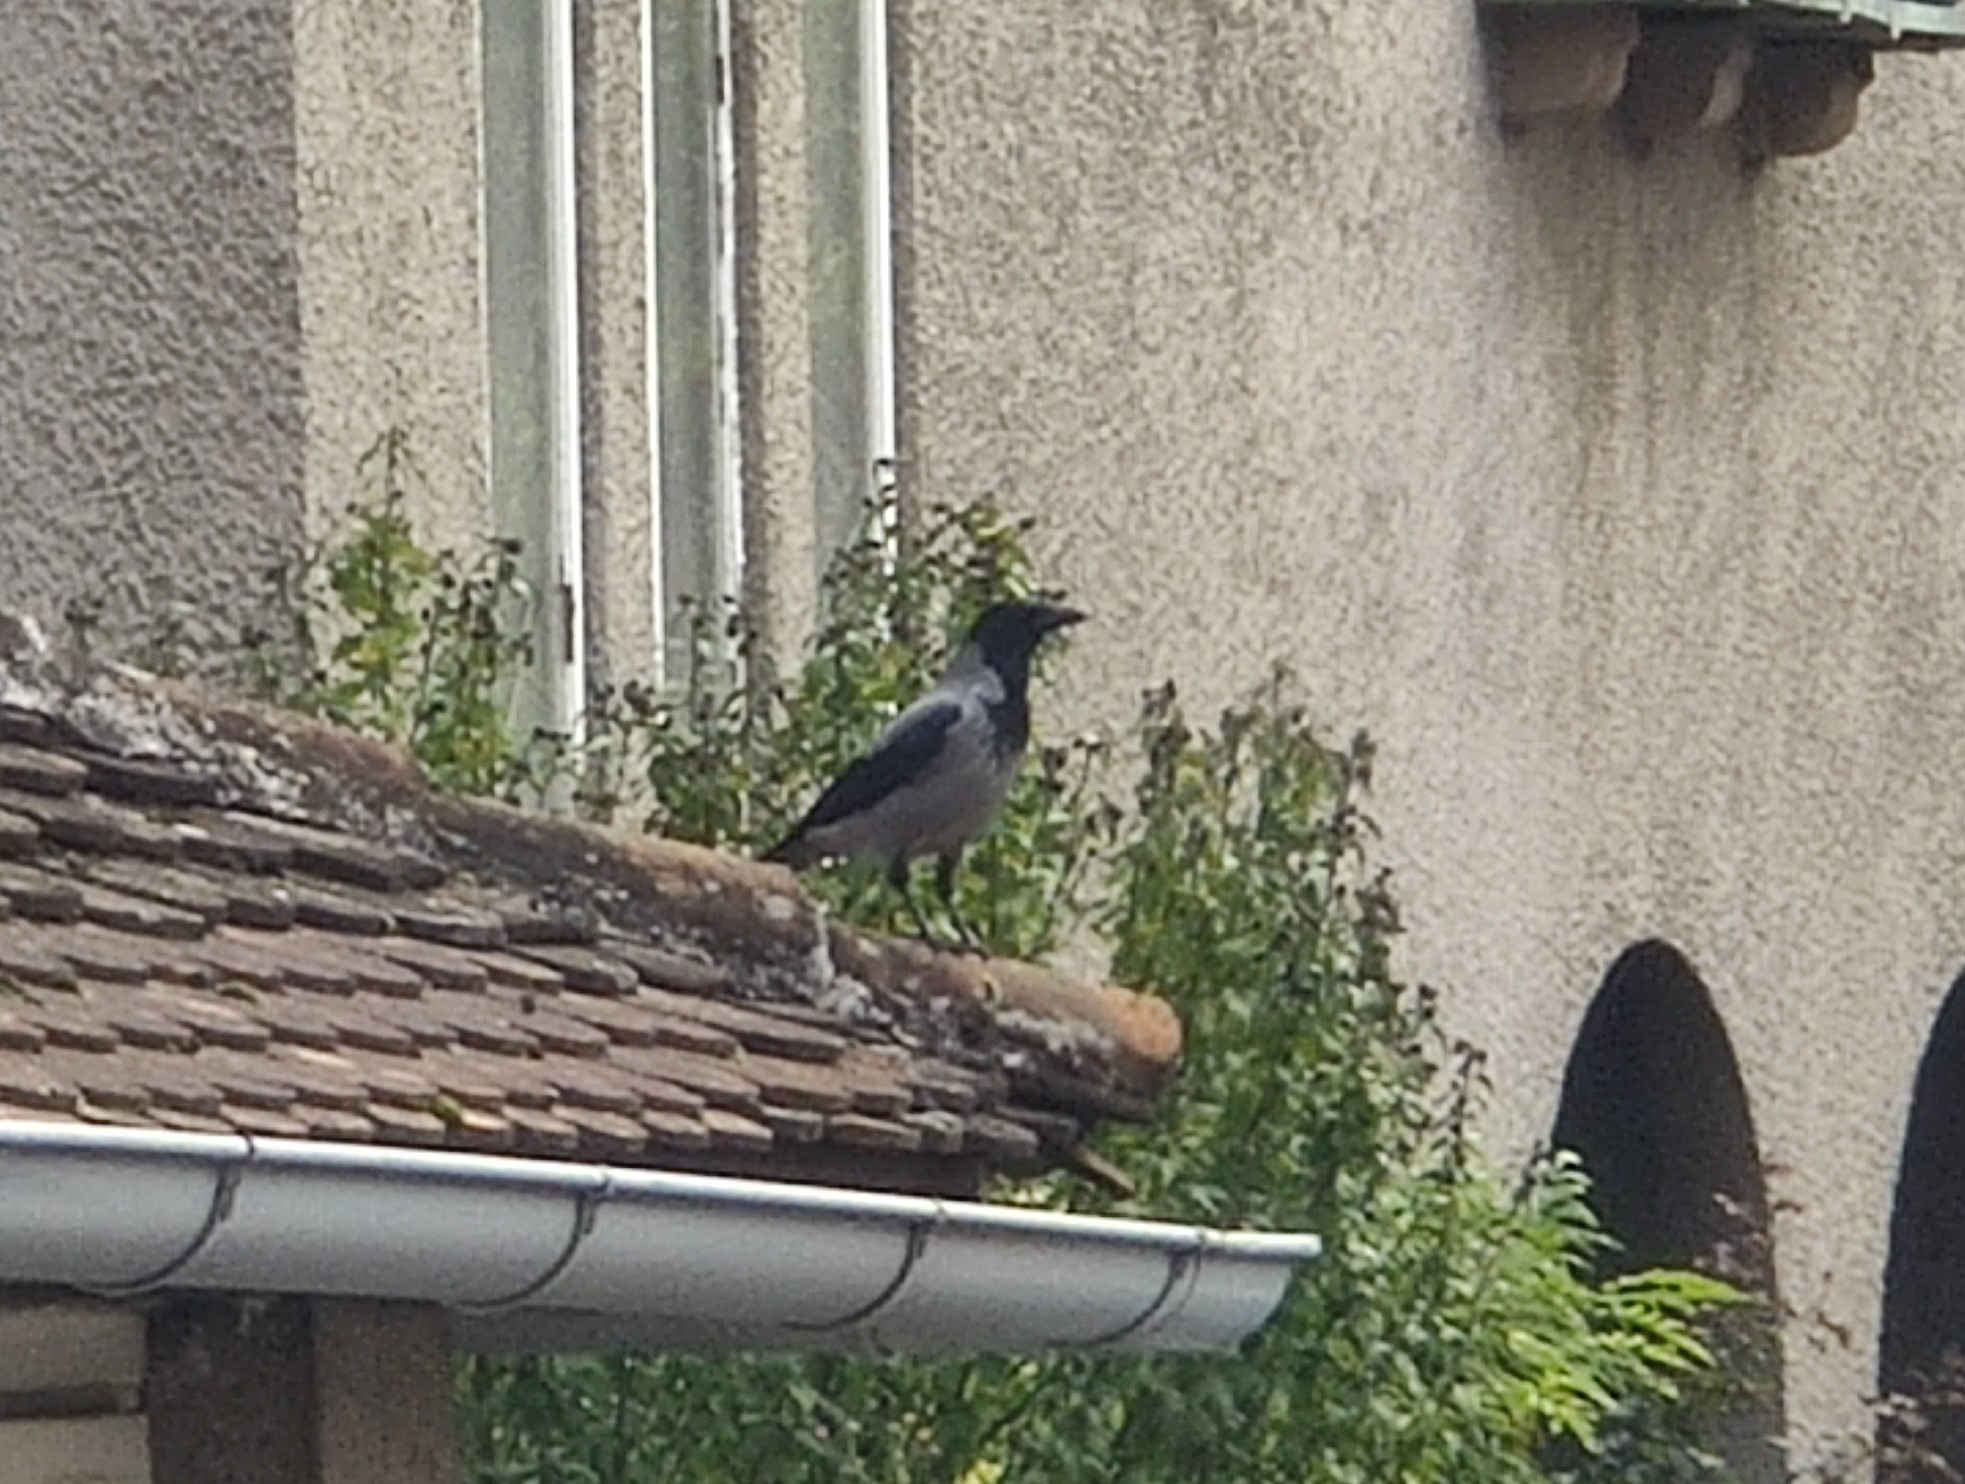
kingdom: Animalia
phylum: Chordata
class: Aves
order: Passeriformes
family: Corvidae
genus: Corvus
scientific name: Corvus cornix
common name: Hooded crow
